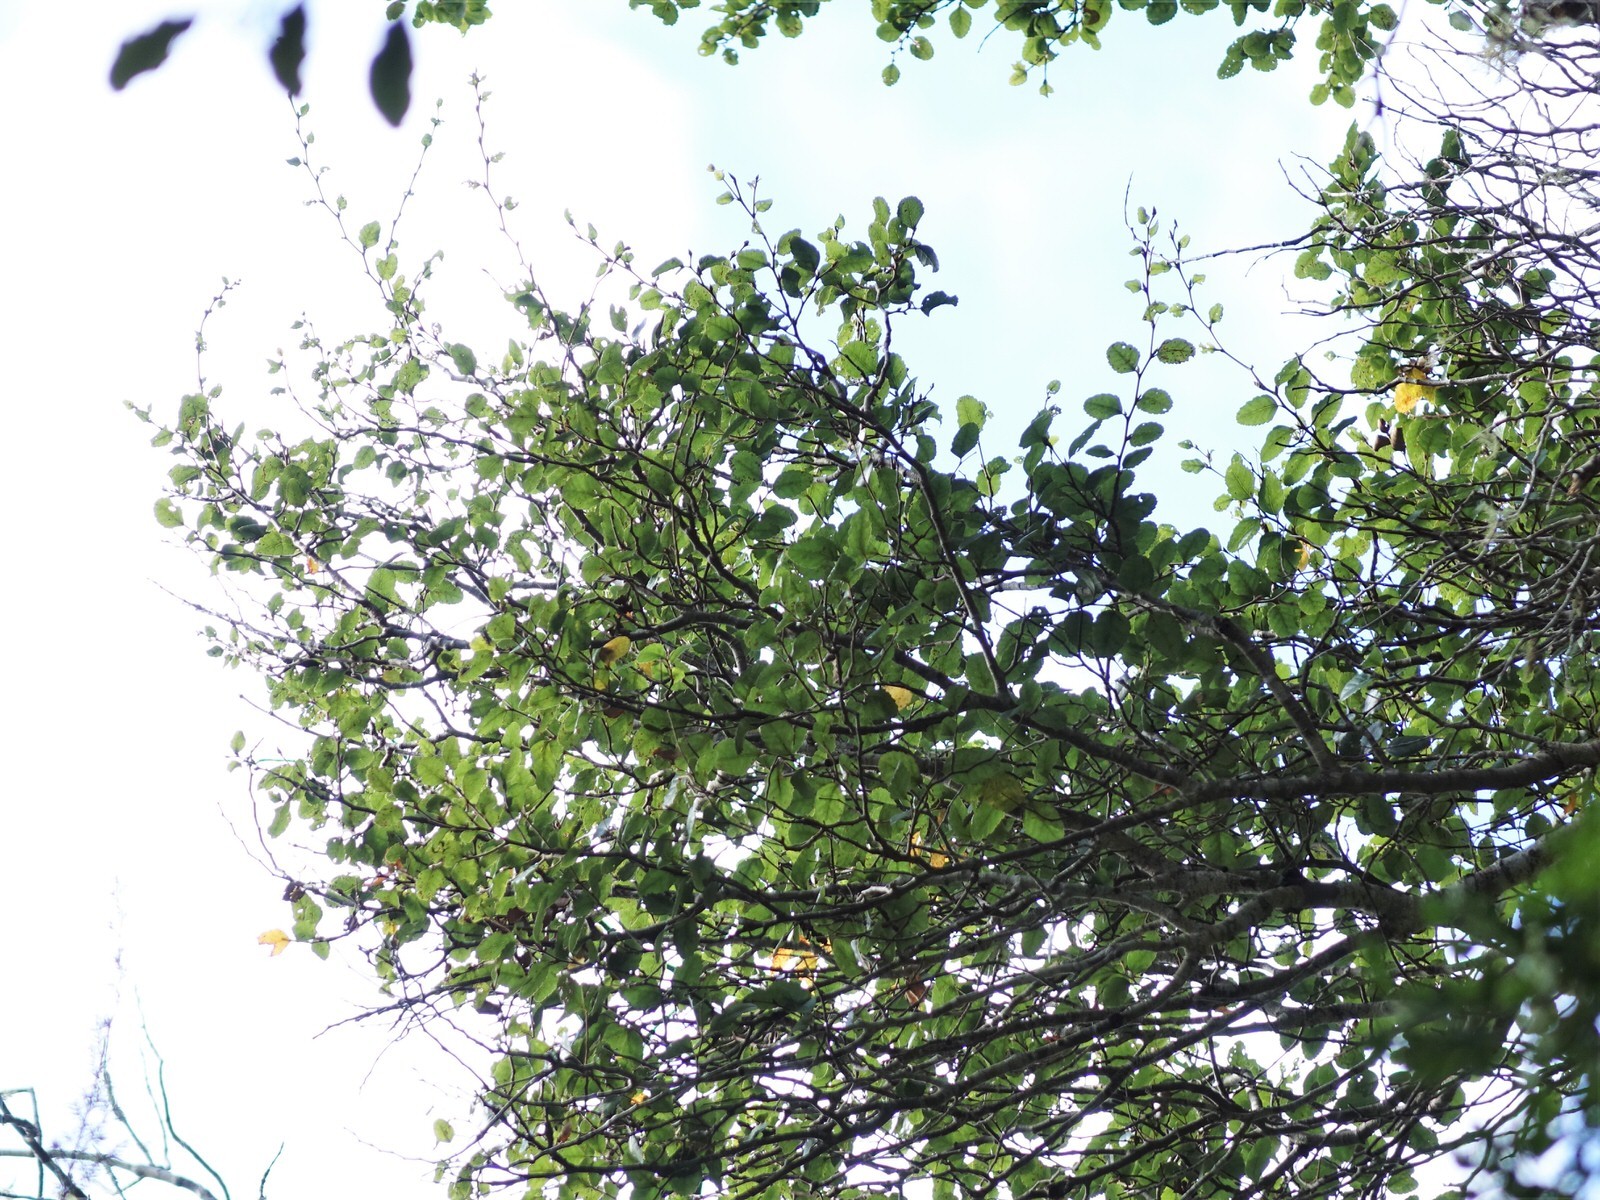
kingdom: Plantae
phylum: Tracheophyta
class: Magnoliopsida
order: Fagales
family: Nothofagaceae
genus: Nothofagus
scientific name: Nothofagus truncata
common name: Hard beech
